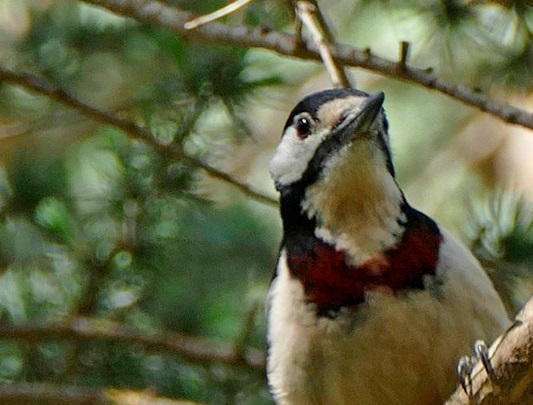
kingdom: Animalia
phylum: Chordata
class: Aves
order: Piciformes
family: Picidae
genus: Dendrocopos
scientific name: Dendrocopos major
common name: Great spotted woodpecker
